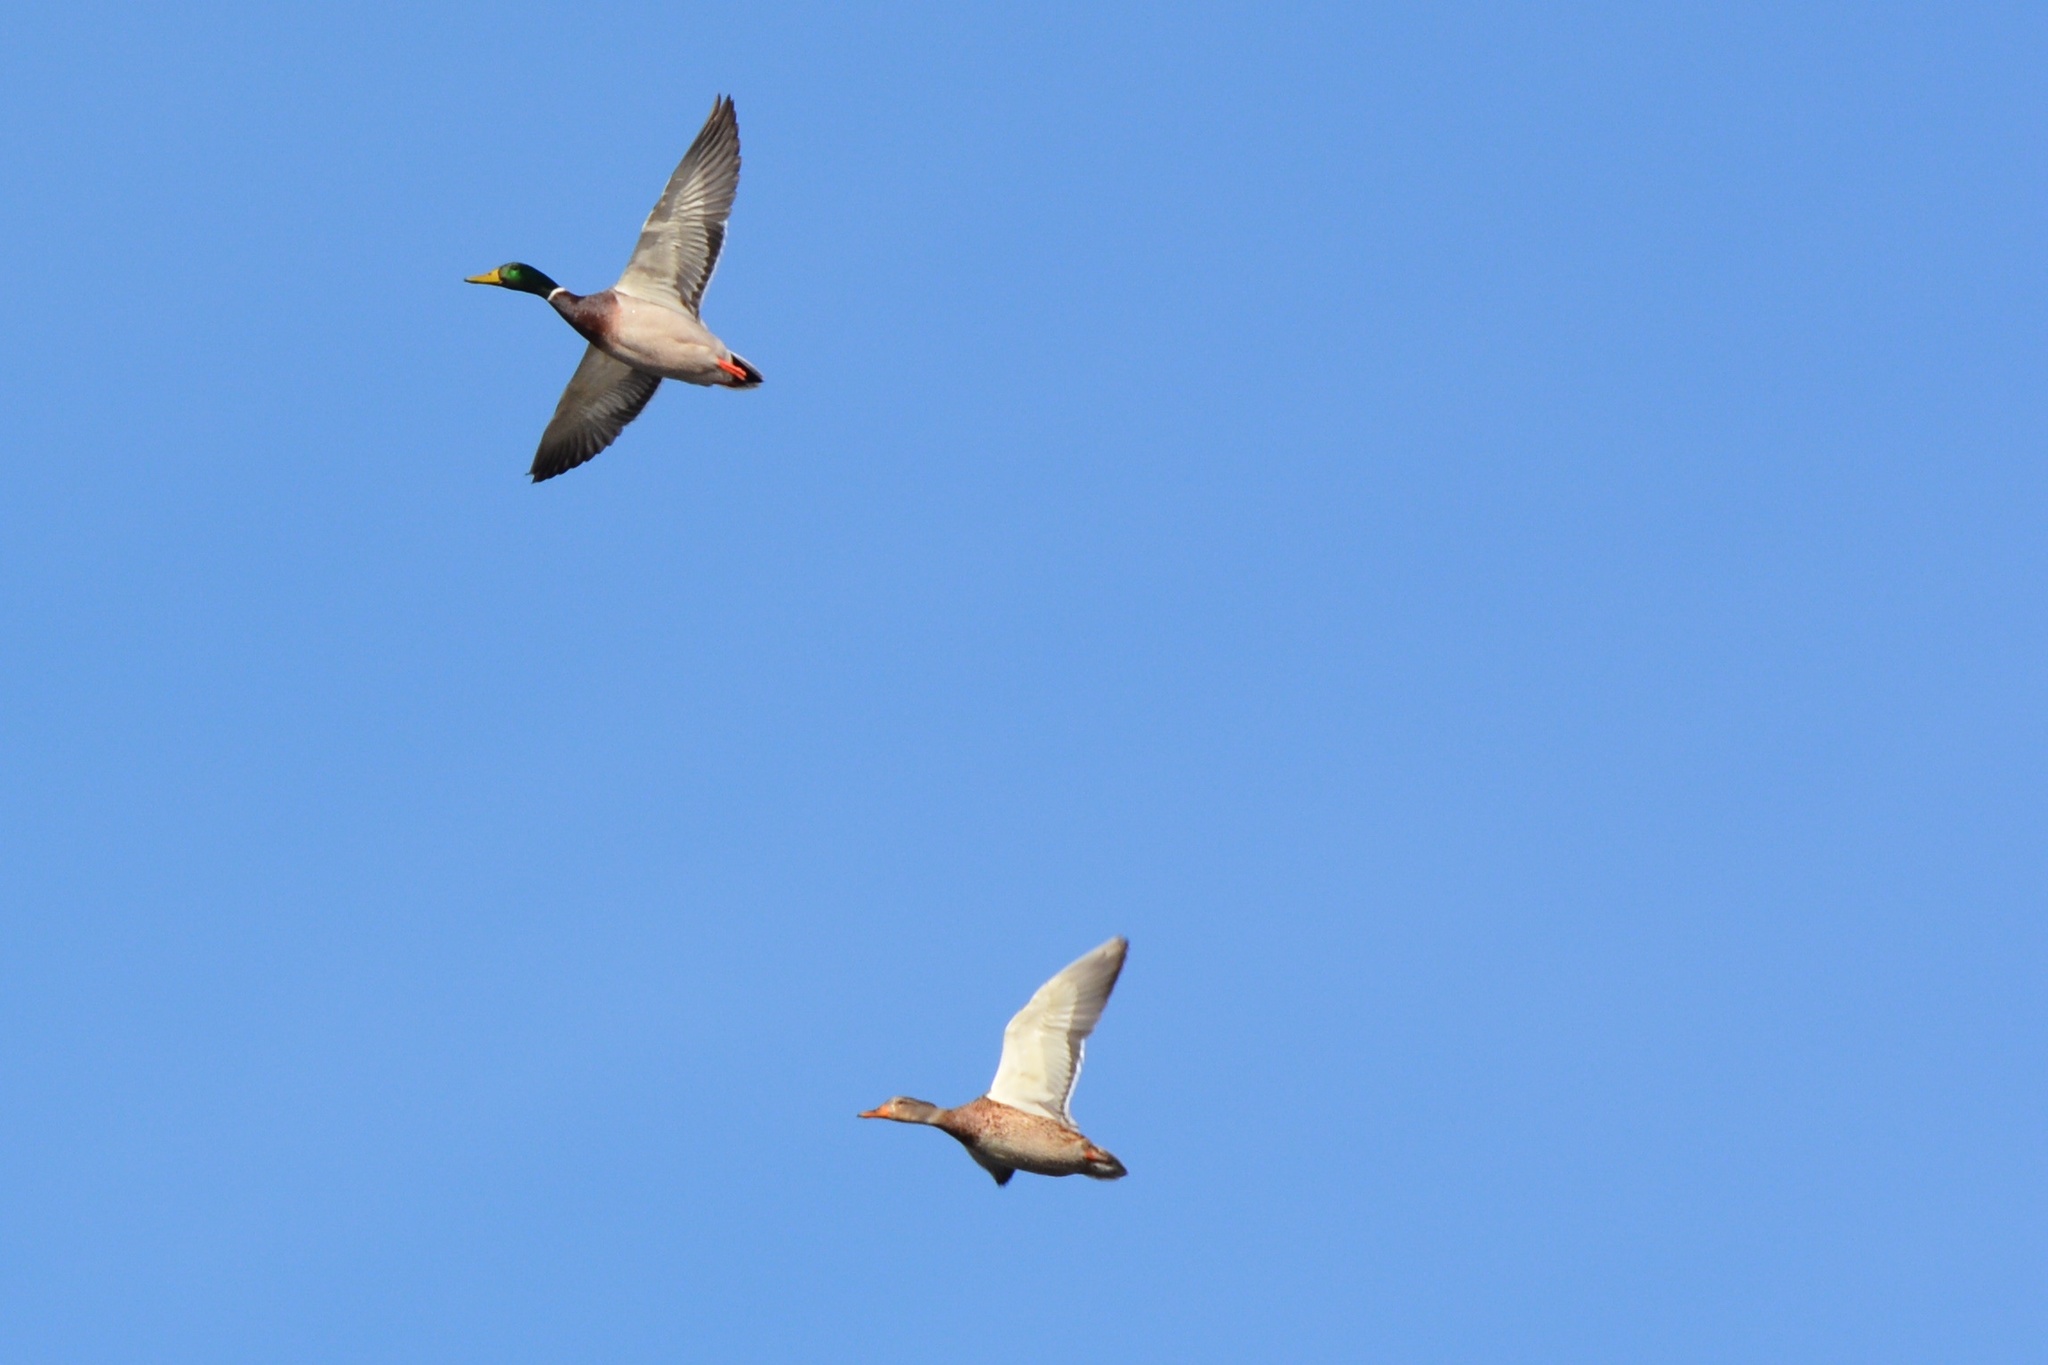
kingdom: Animalia
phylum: Chordata
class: Aves
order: Anseriformes
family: Anatidae
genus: Anas
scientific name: Anas platyrhynchos
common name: Mallard
